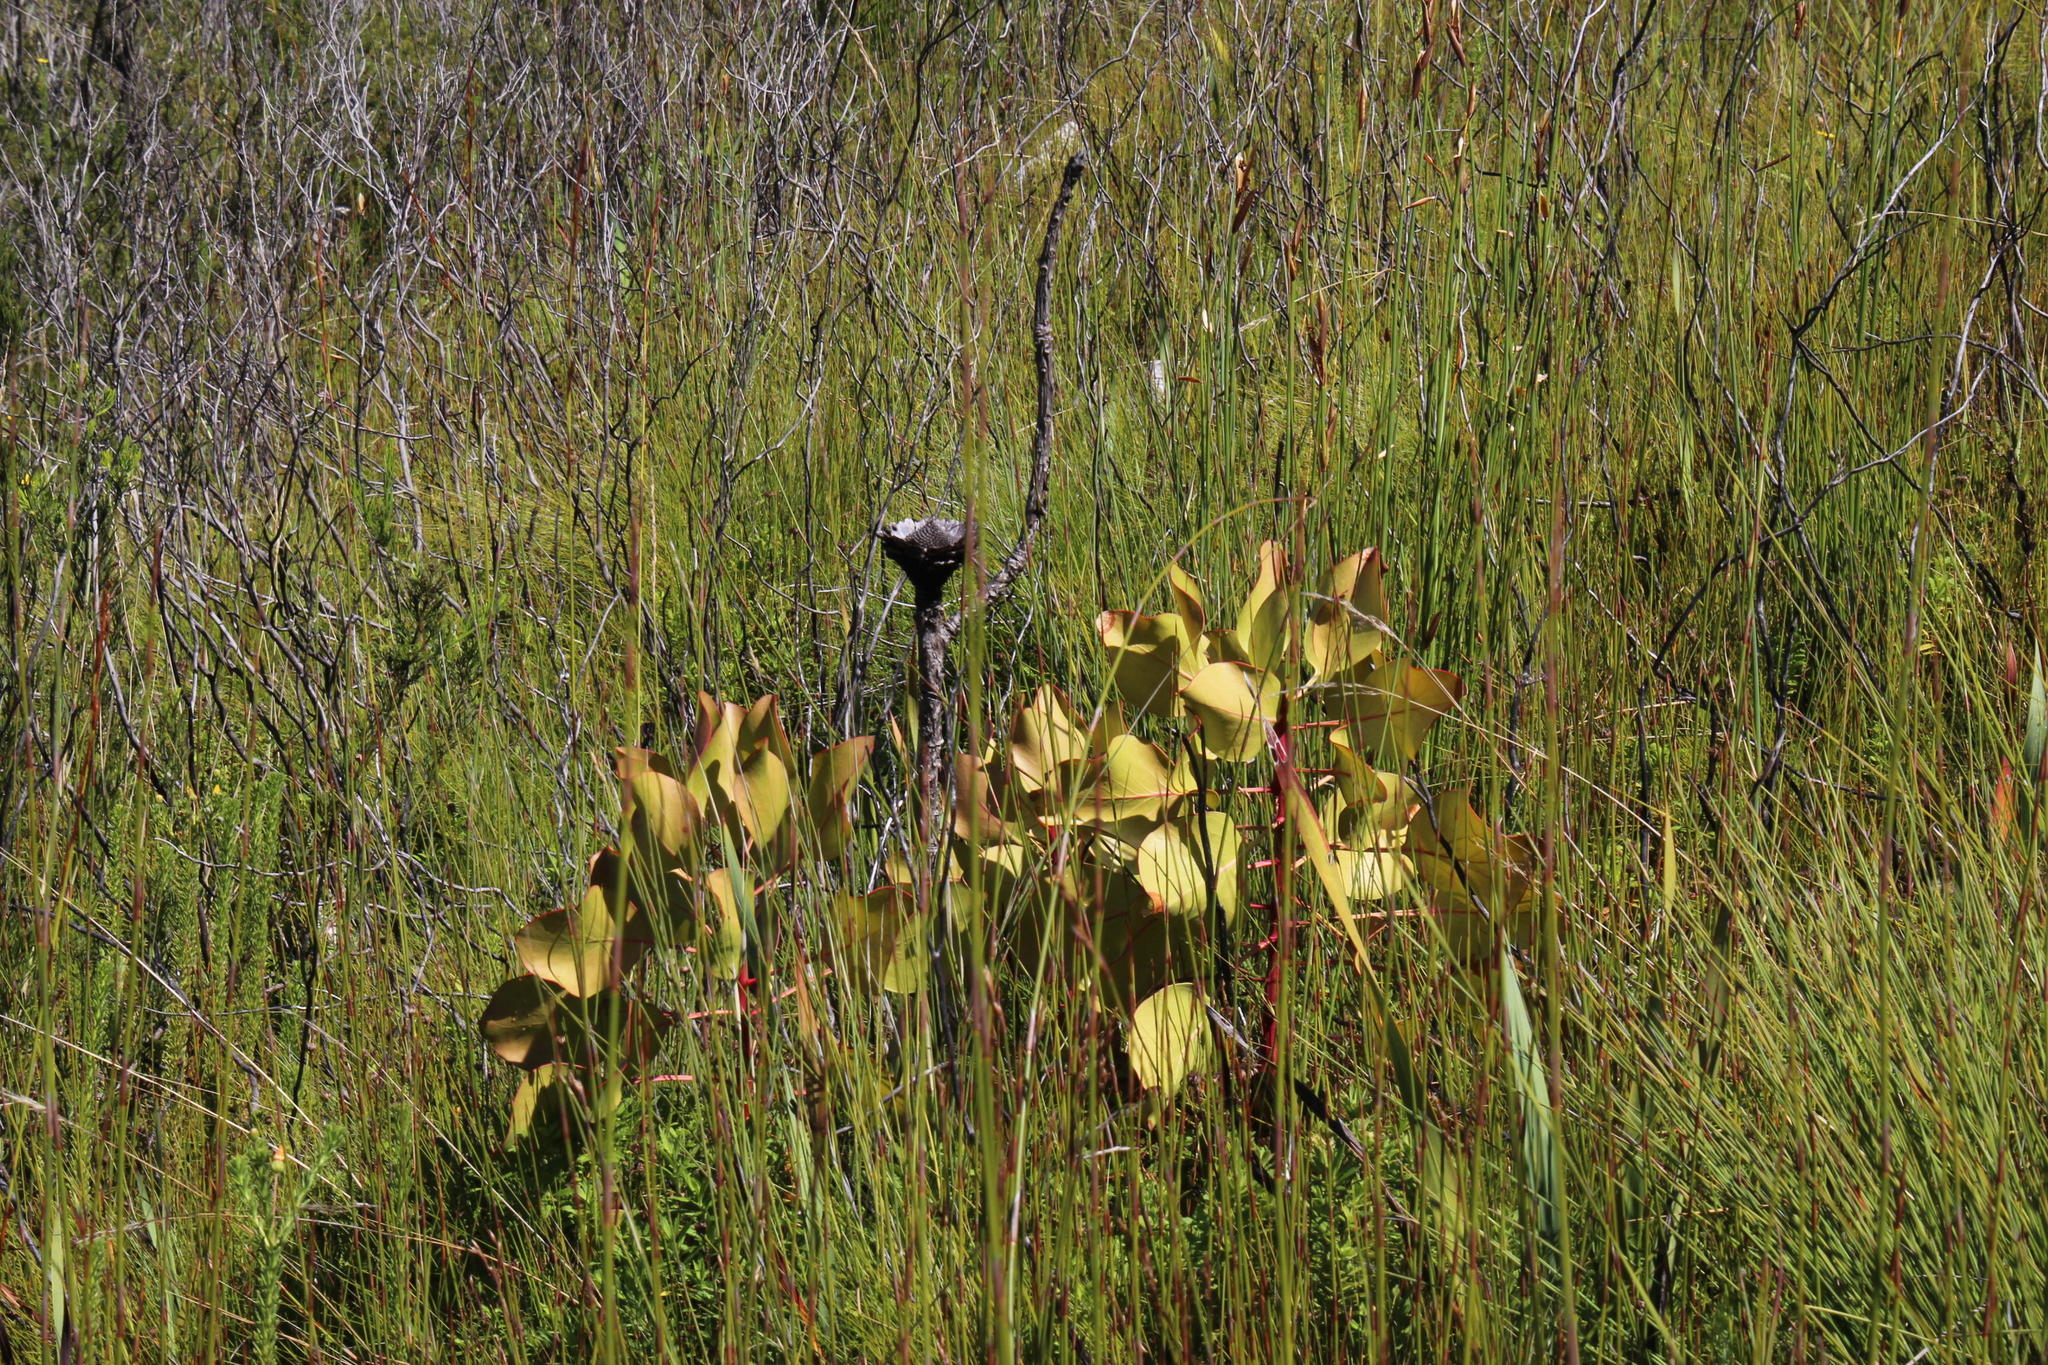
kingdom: Plantae
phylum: Tracheophyta
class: Magnoliopsida
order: Proteales
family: Proteaceae
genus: Protea
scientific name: Protea cynaroides
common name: King protea
